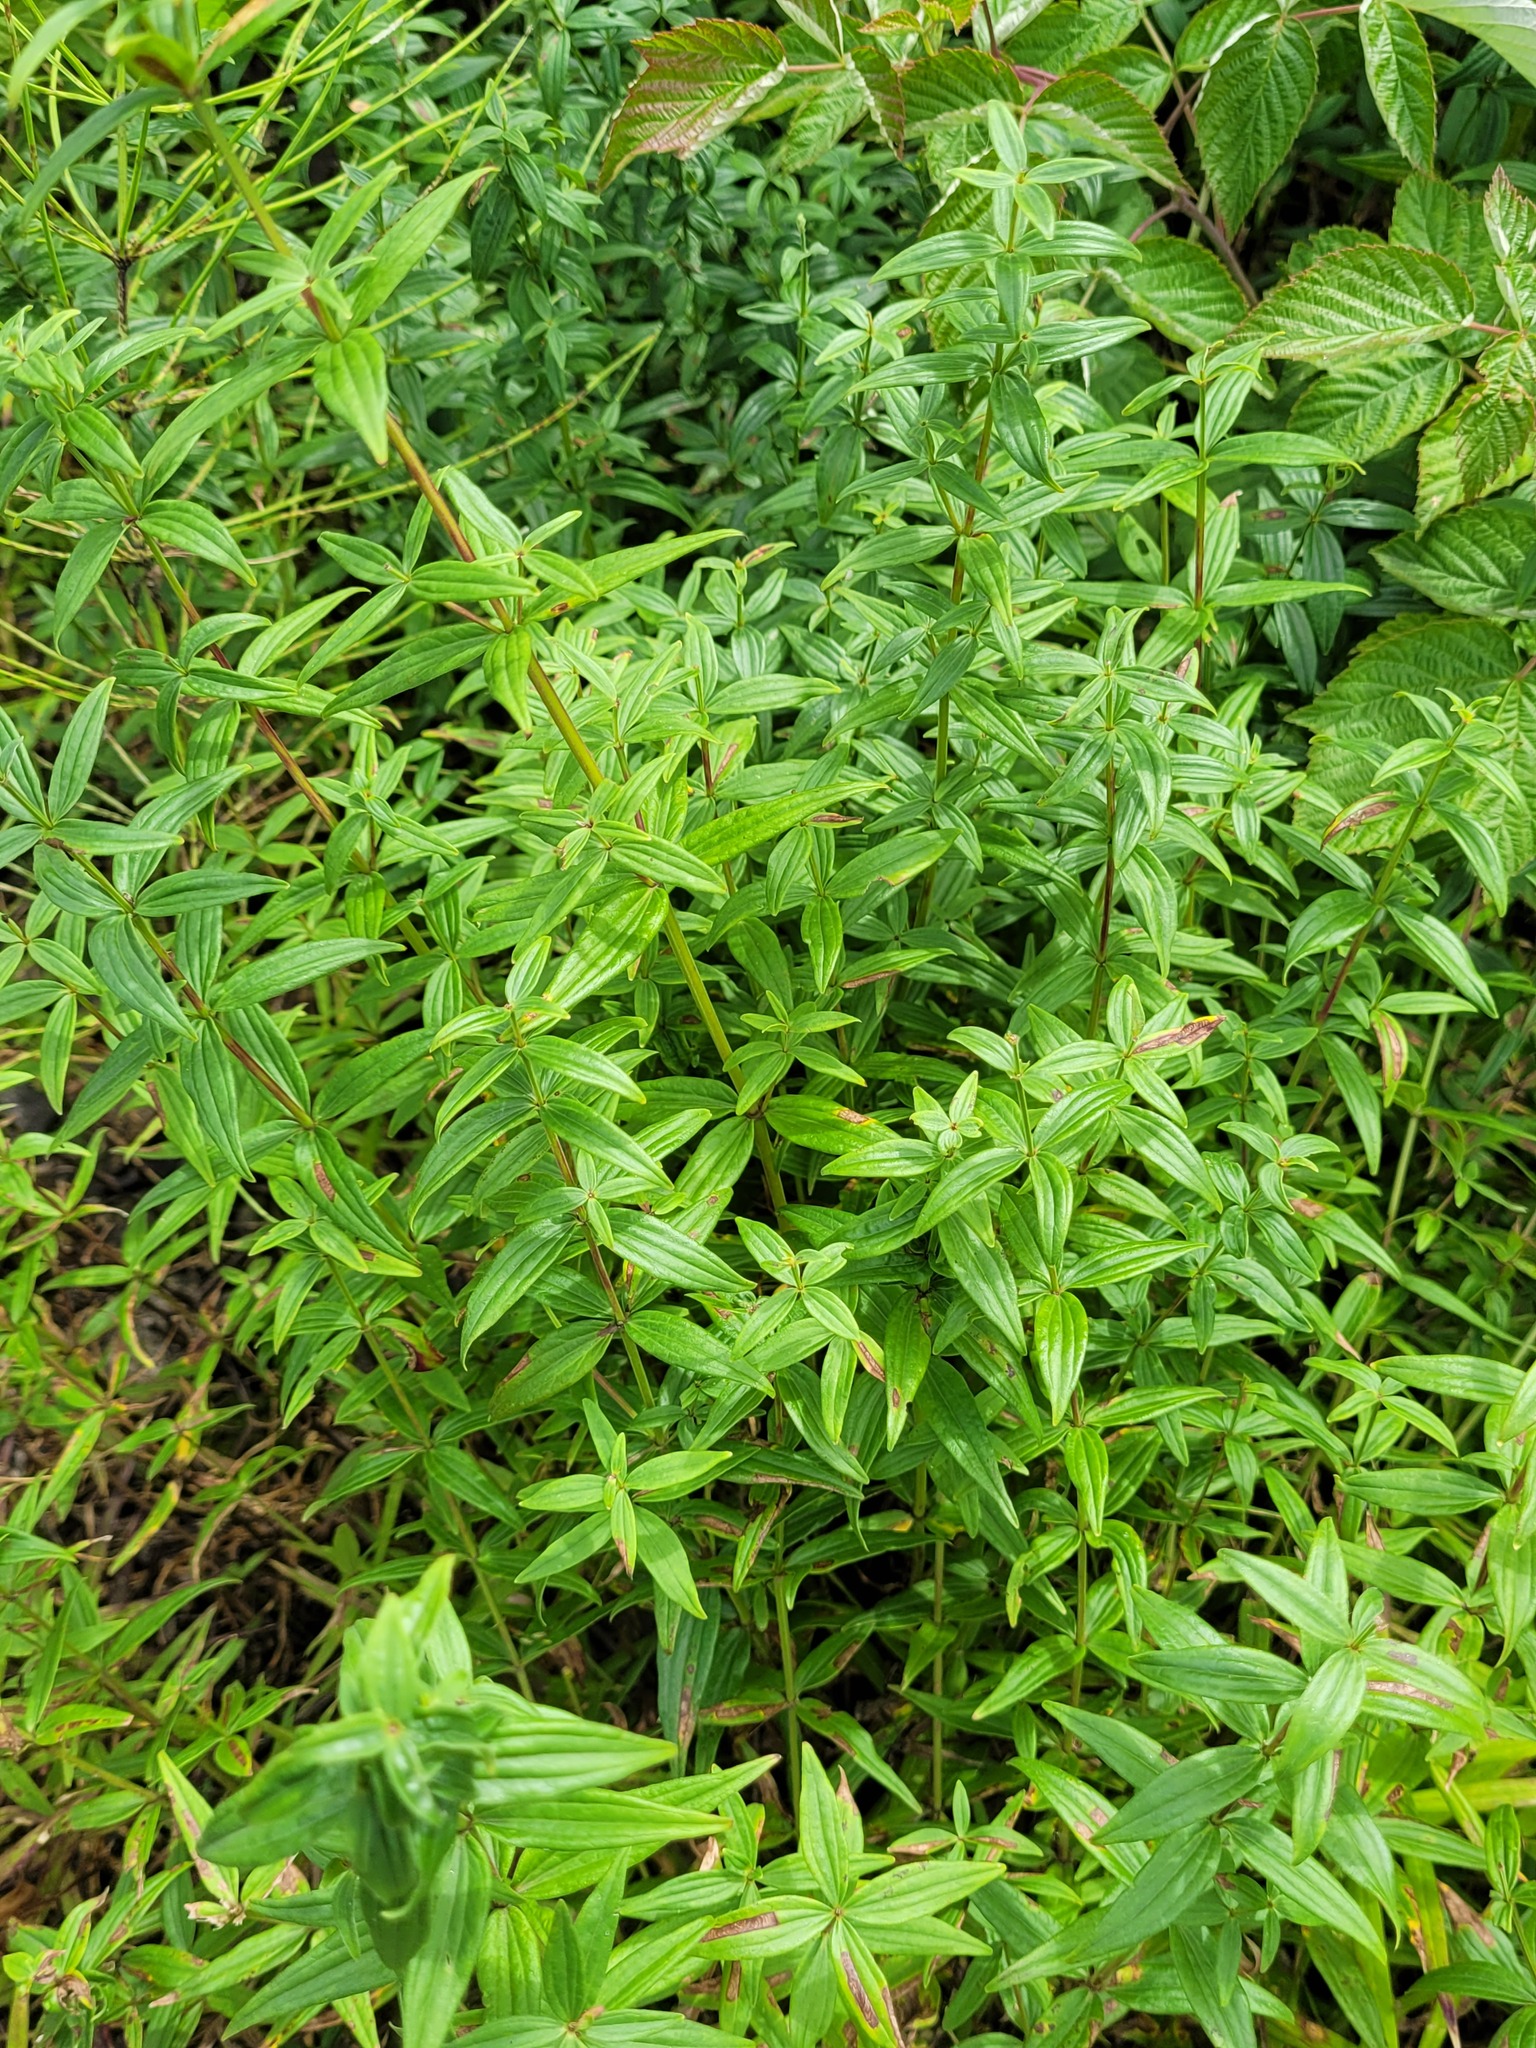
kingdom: Plantae
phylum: Tracheophyta
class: Magnoliopsida
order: Gentianales
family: Rubiaceae
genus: Galium
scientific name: Galium rubioides
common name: European bedstraw
